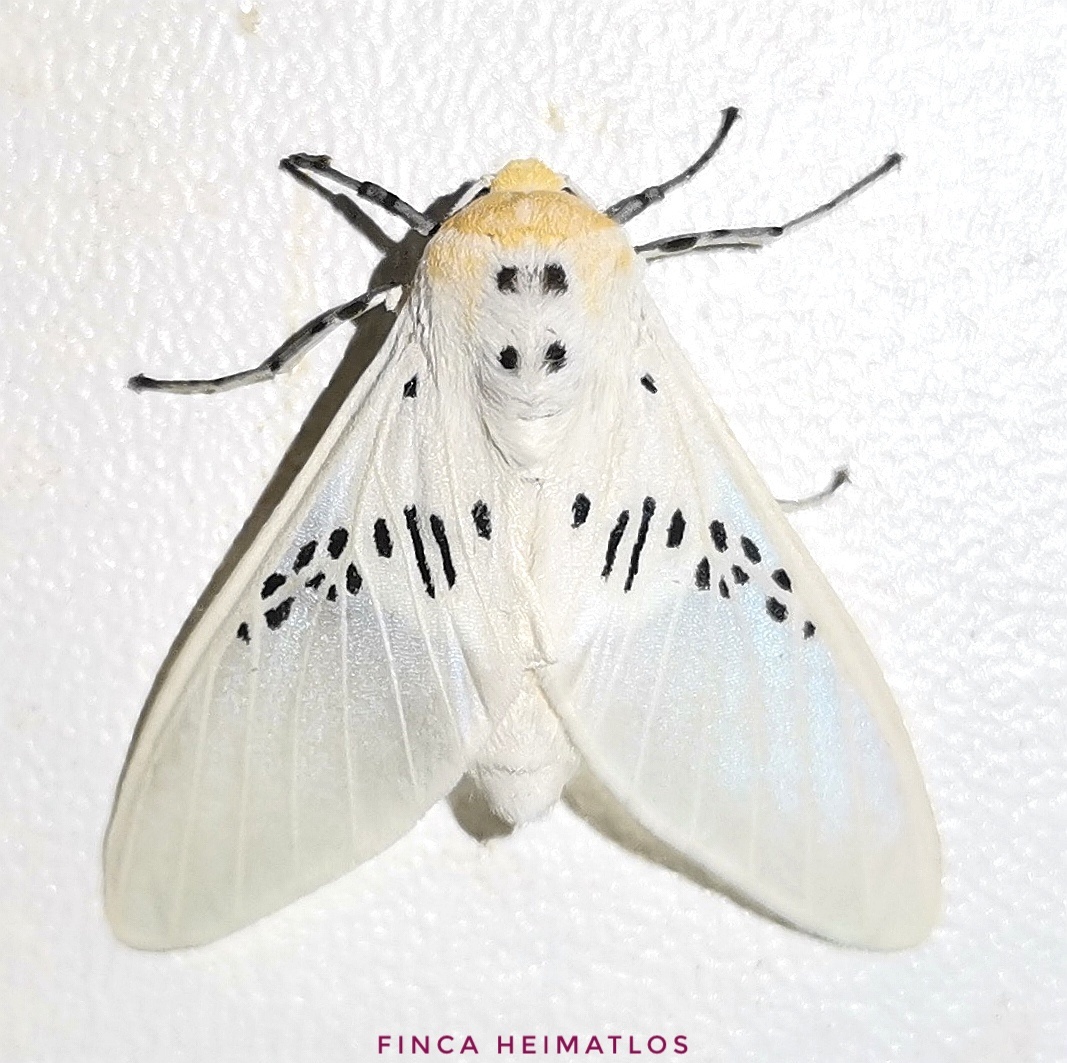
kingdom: Animalia
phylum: Arthropoda
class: Insecta
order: Lepidoptera
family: Erebidae
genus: Idalus
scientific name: Idalus fasciipuncta
